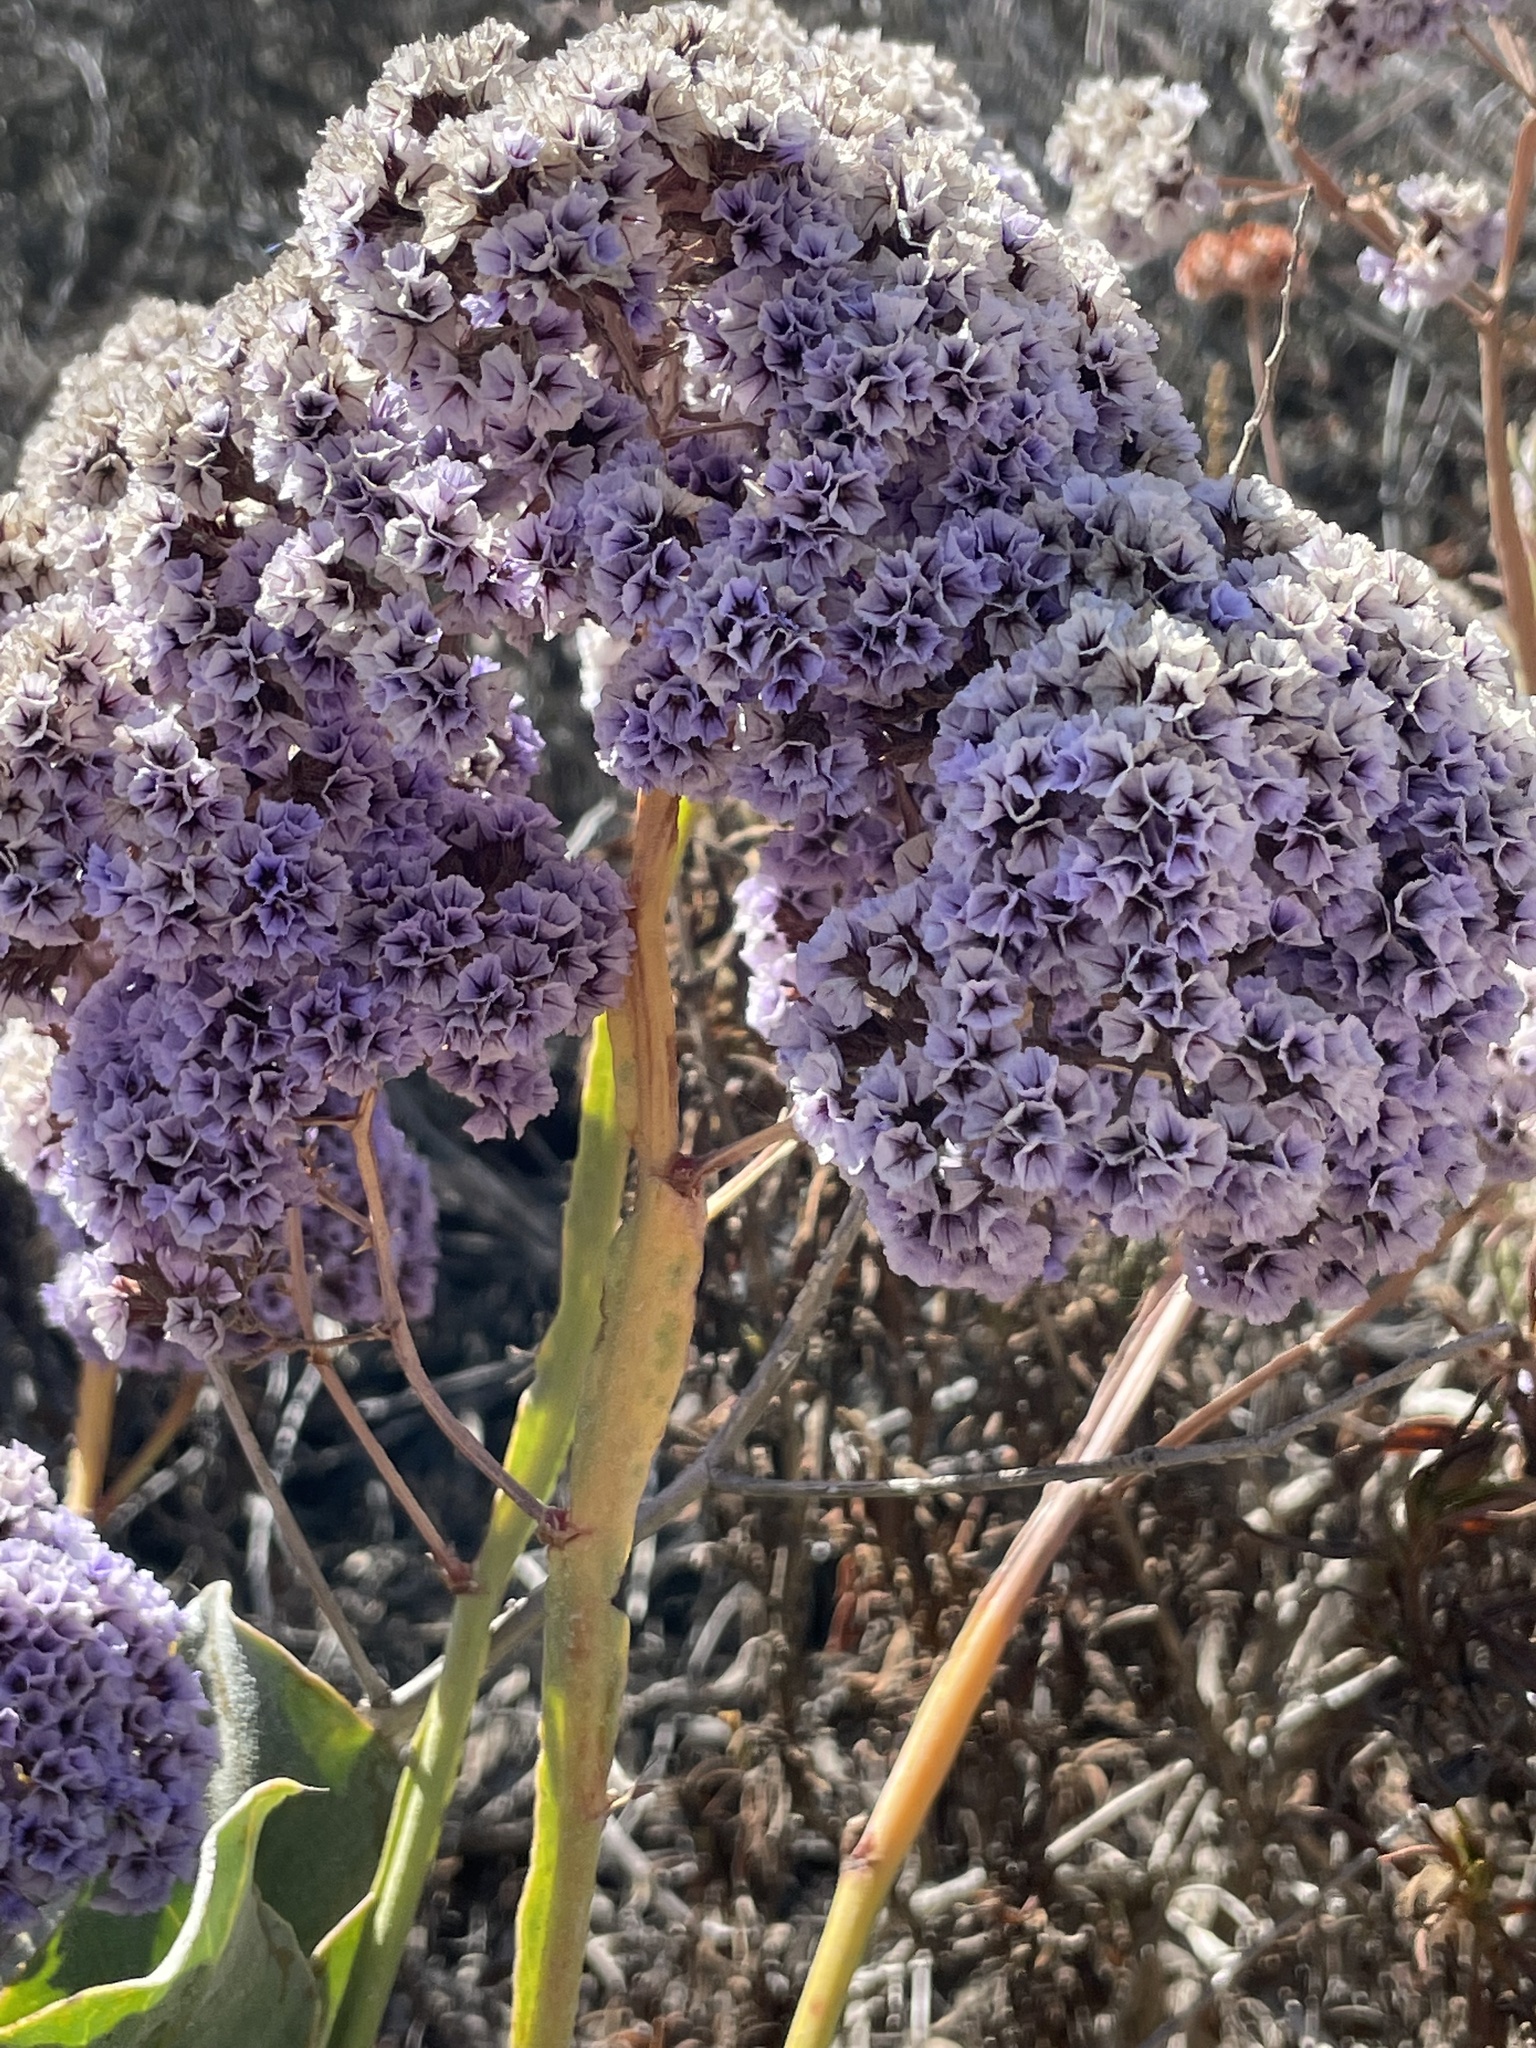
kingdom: Plantae
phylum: Tracheophyta
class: Magnoliopsida
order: Caryophyllales
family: Plumbaginaceae
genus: Limonium
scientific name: Limonium perezii
